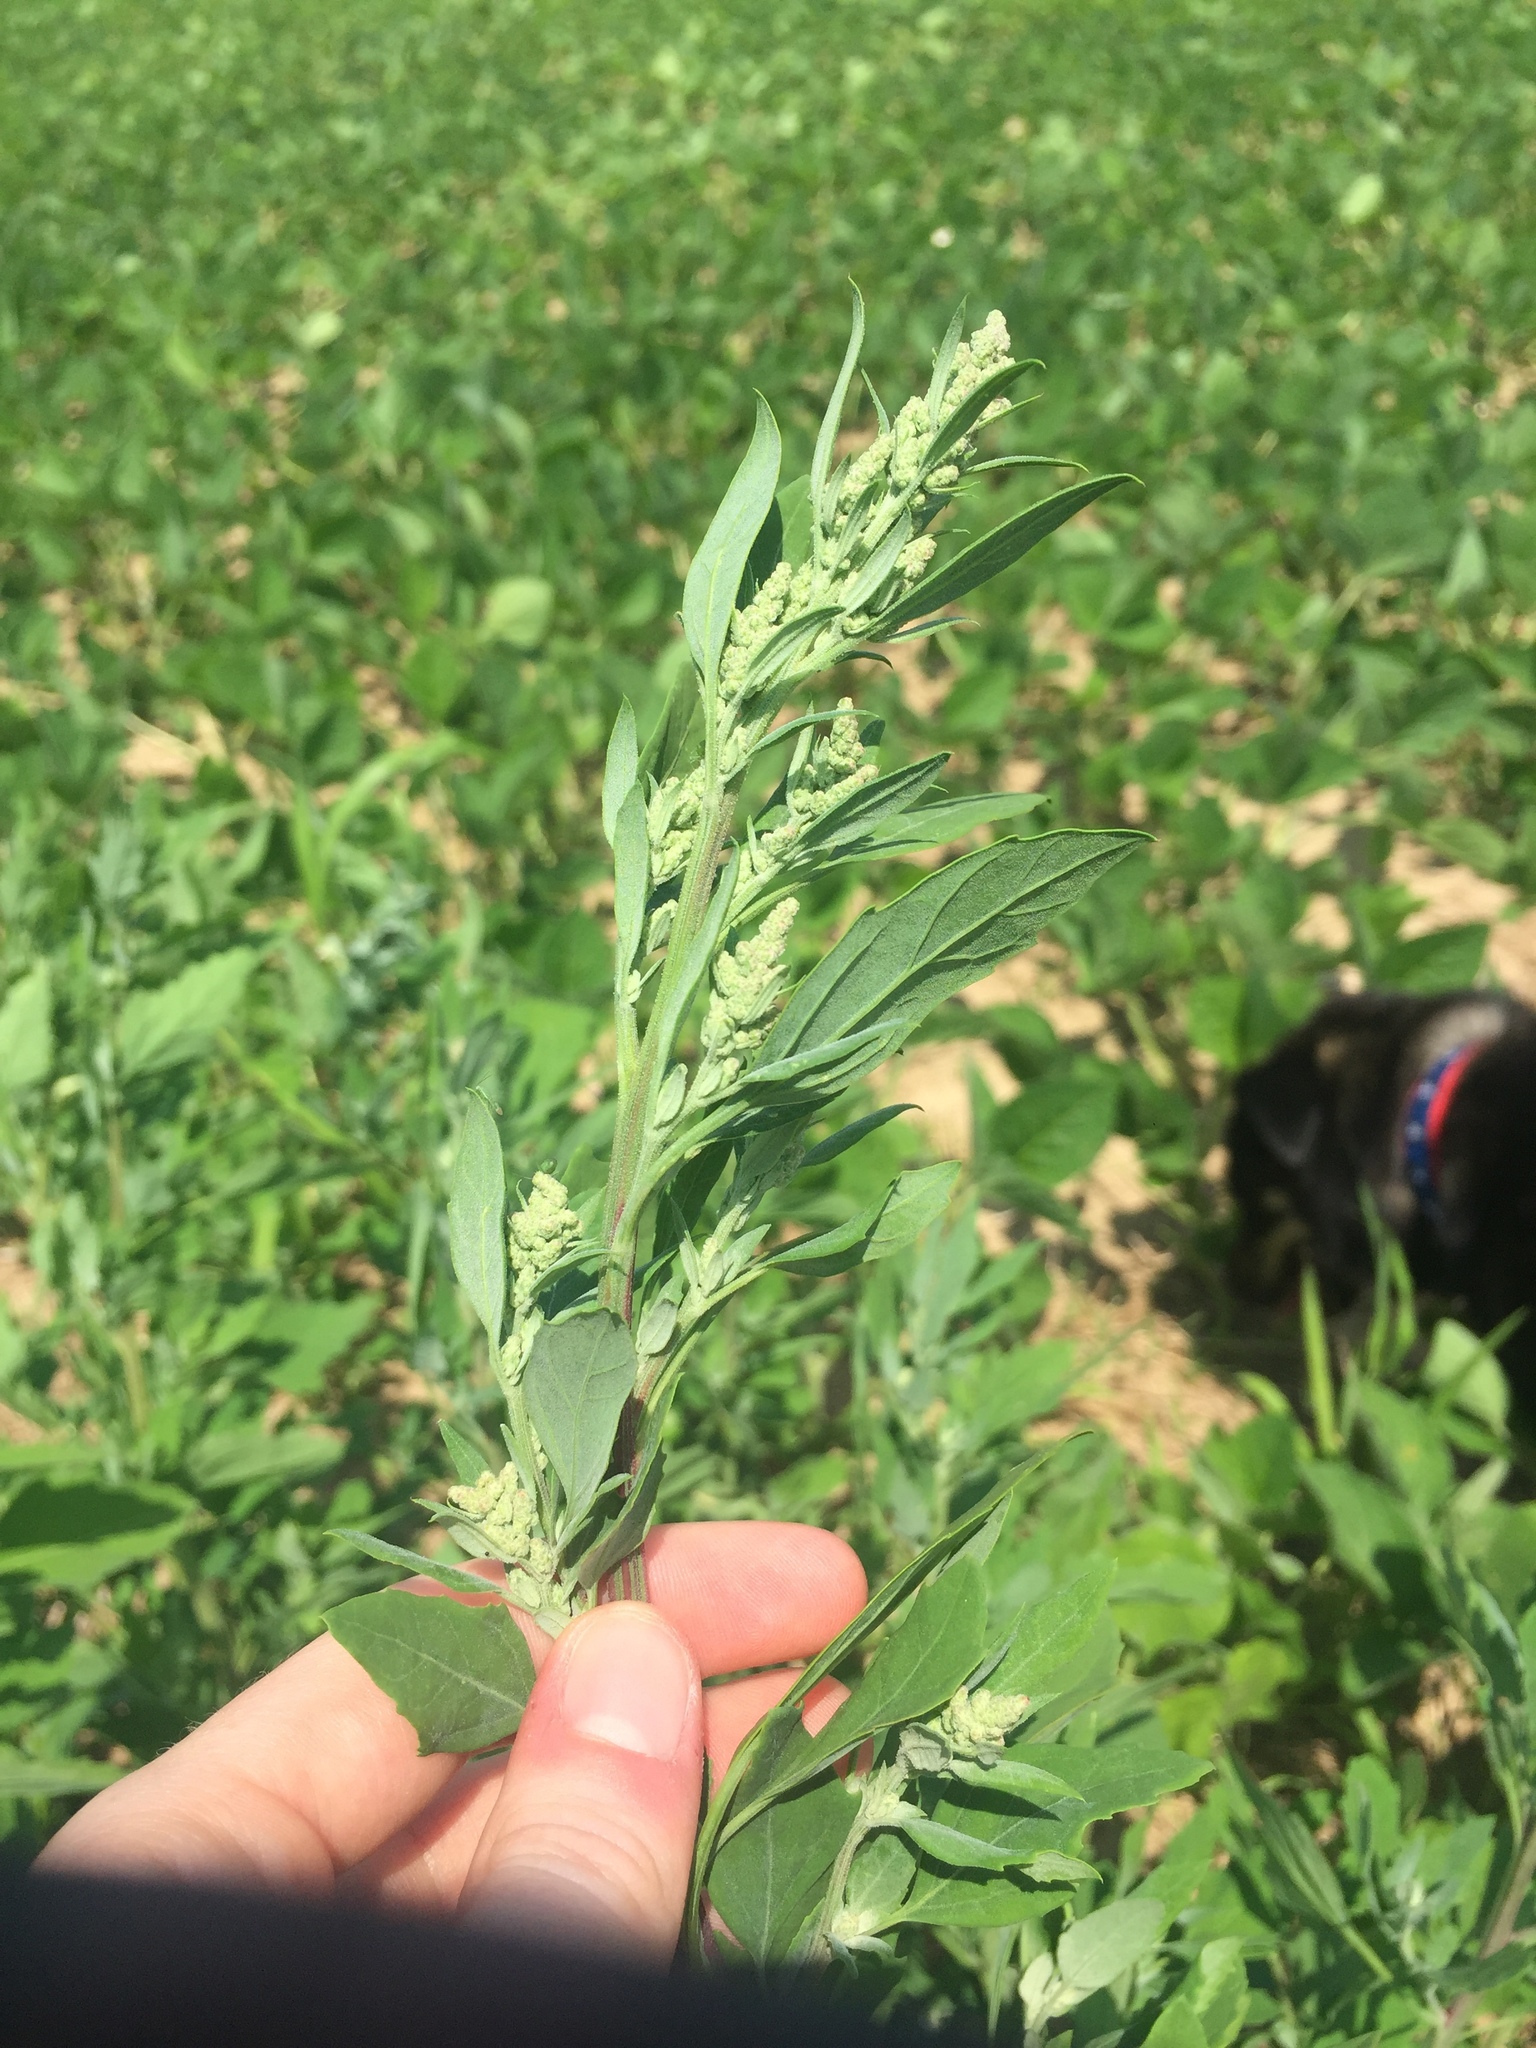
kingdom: Plantae
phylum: Tracheophyta
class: Magnoliopsida
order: Caryophyllales
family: Amaranthaceae
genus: Chenopodium
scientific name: Chenopodium album
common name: Fat-hen
